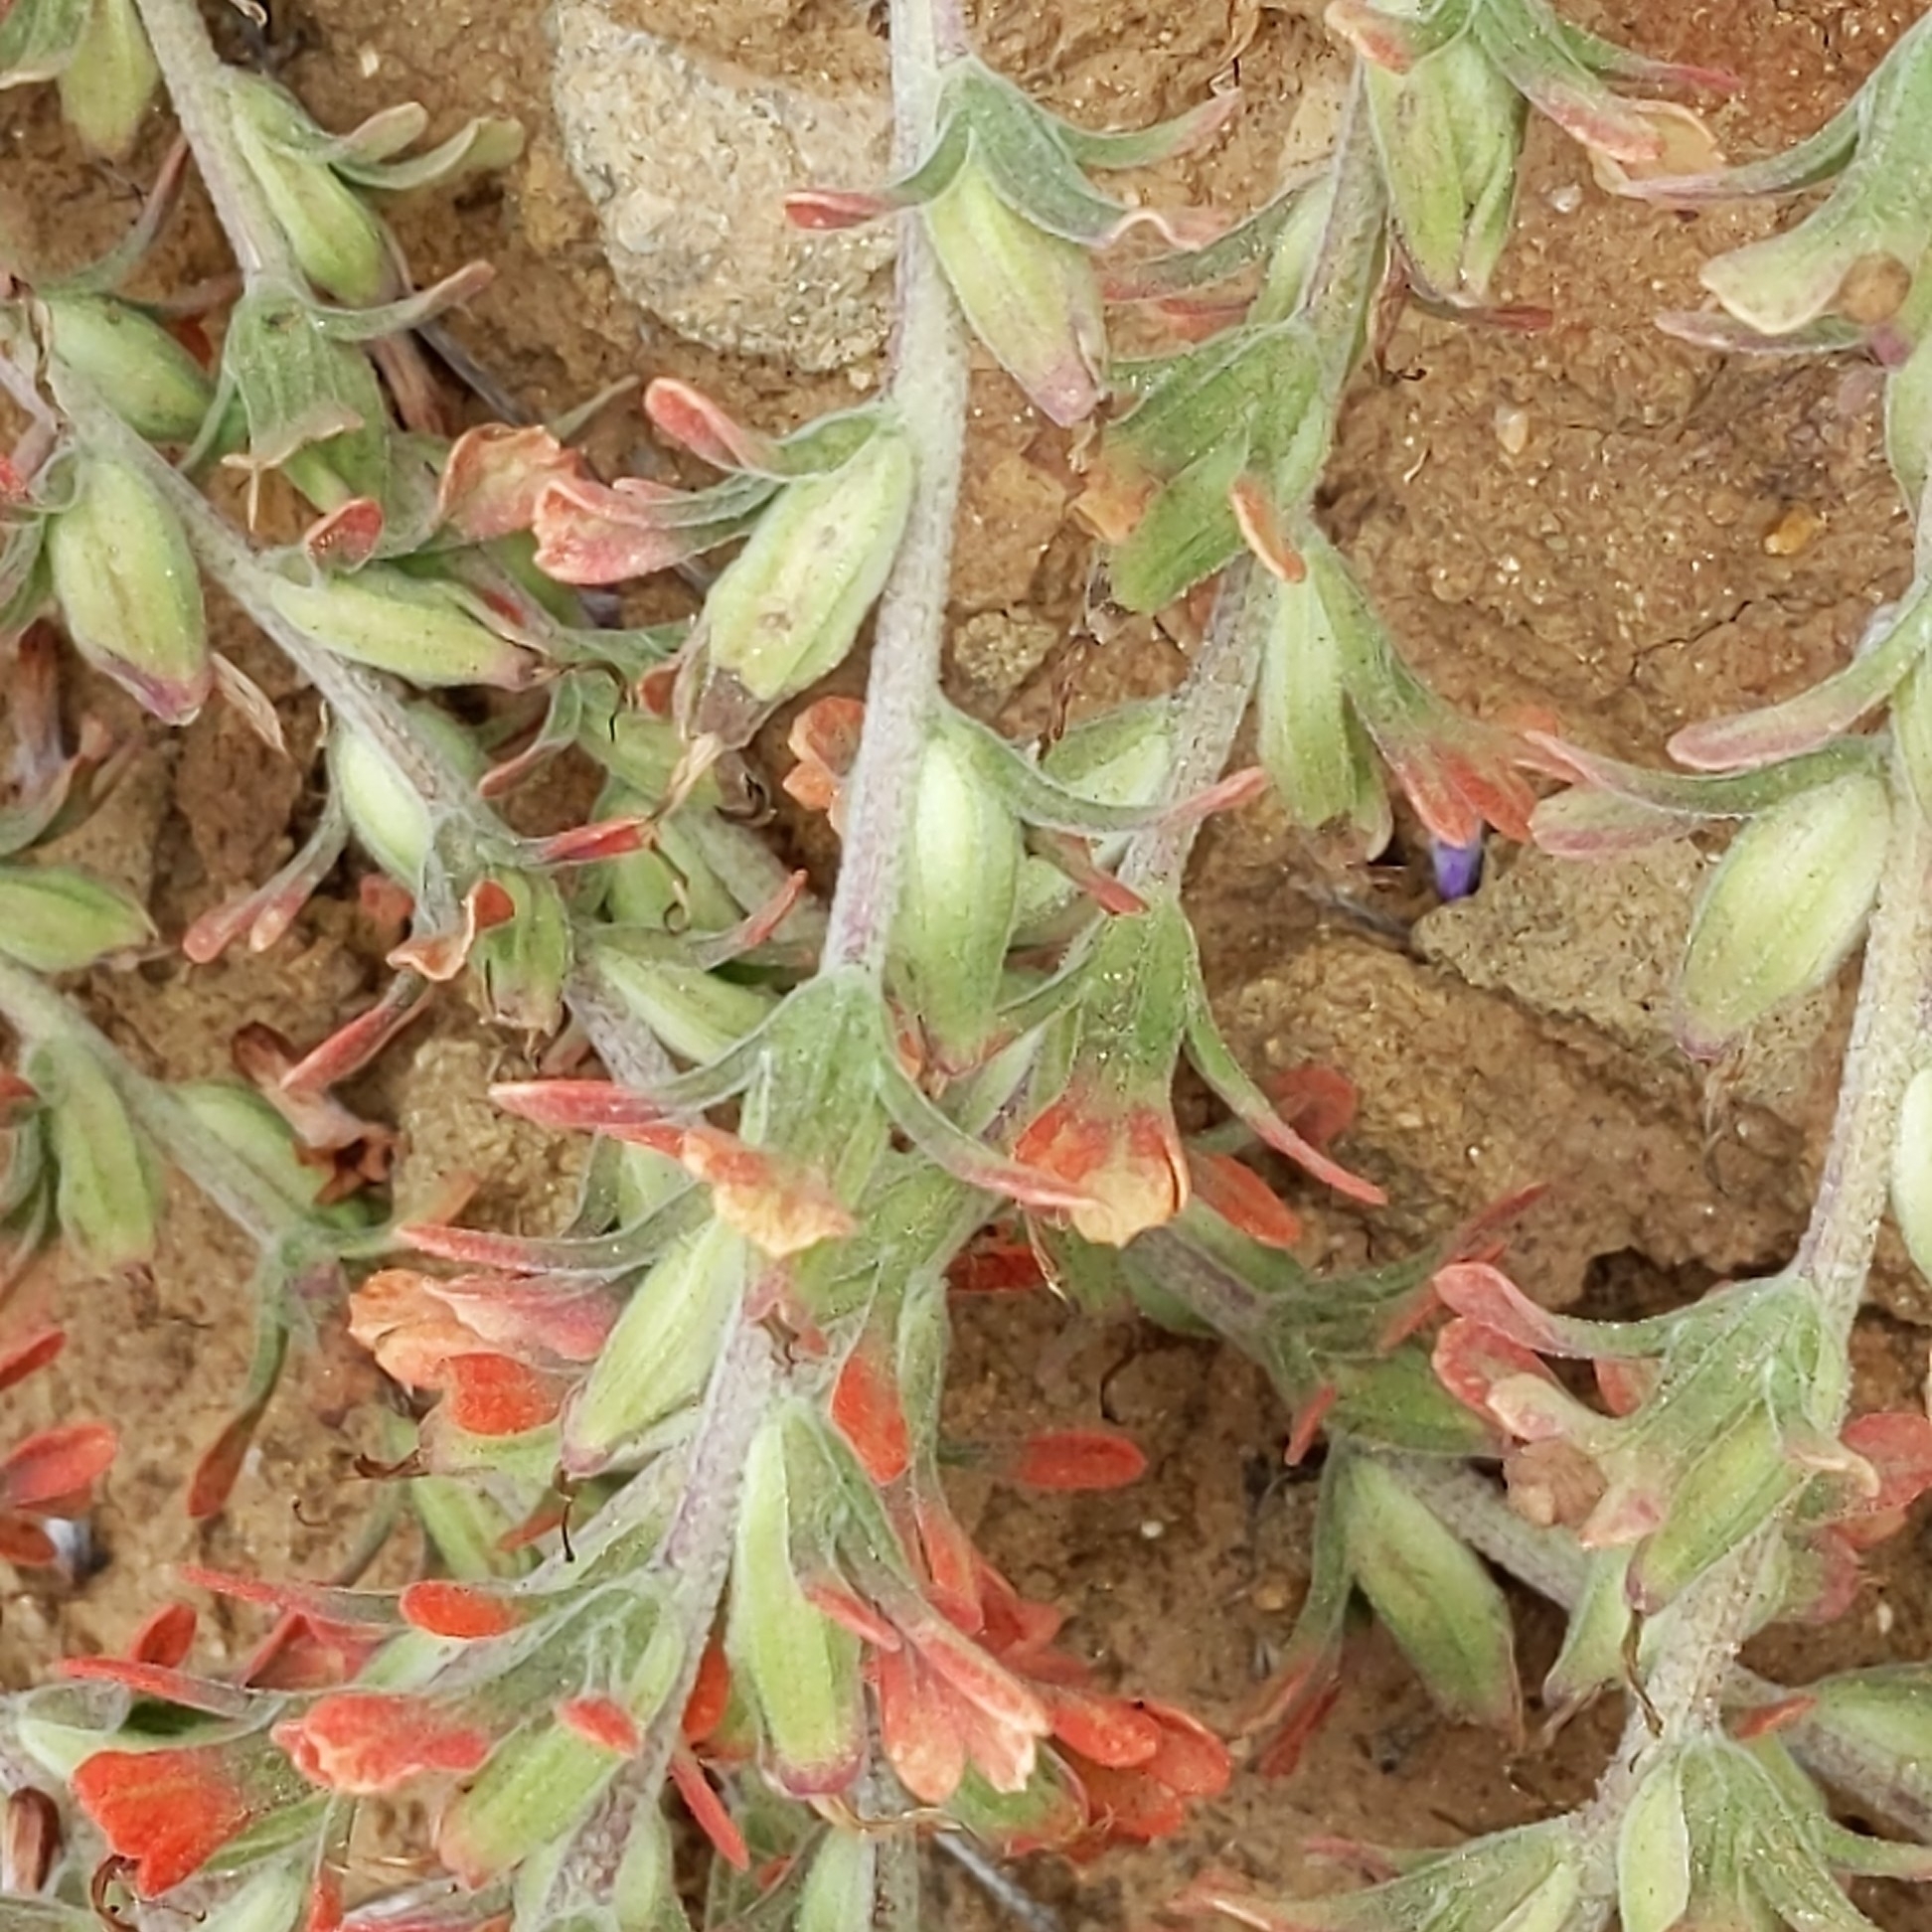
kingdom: Plantae
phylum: Tracheophyta
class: Magnoliopsida
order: Lamiales
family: Orobanchaceae
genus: Castilleja
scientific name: Castilleja foliolosa
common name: Woolly indian paintbrush
